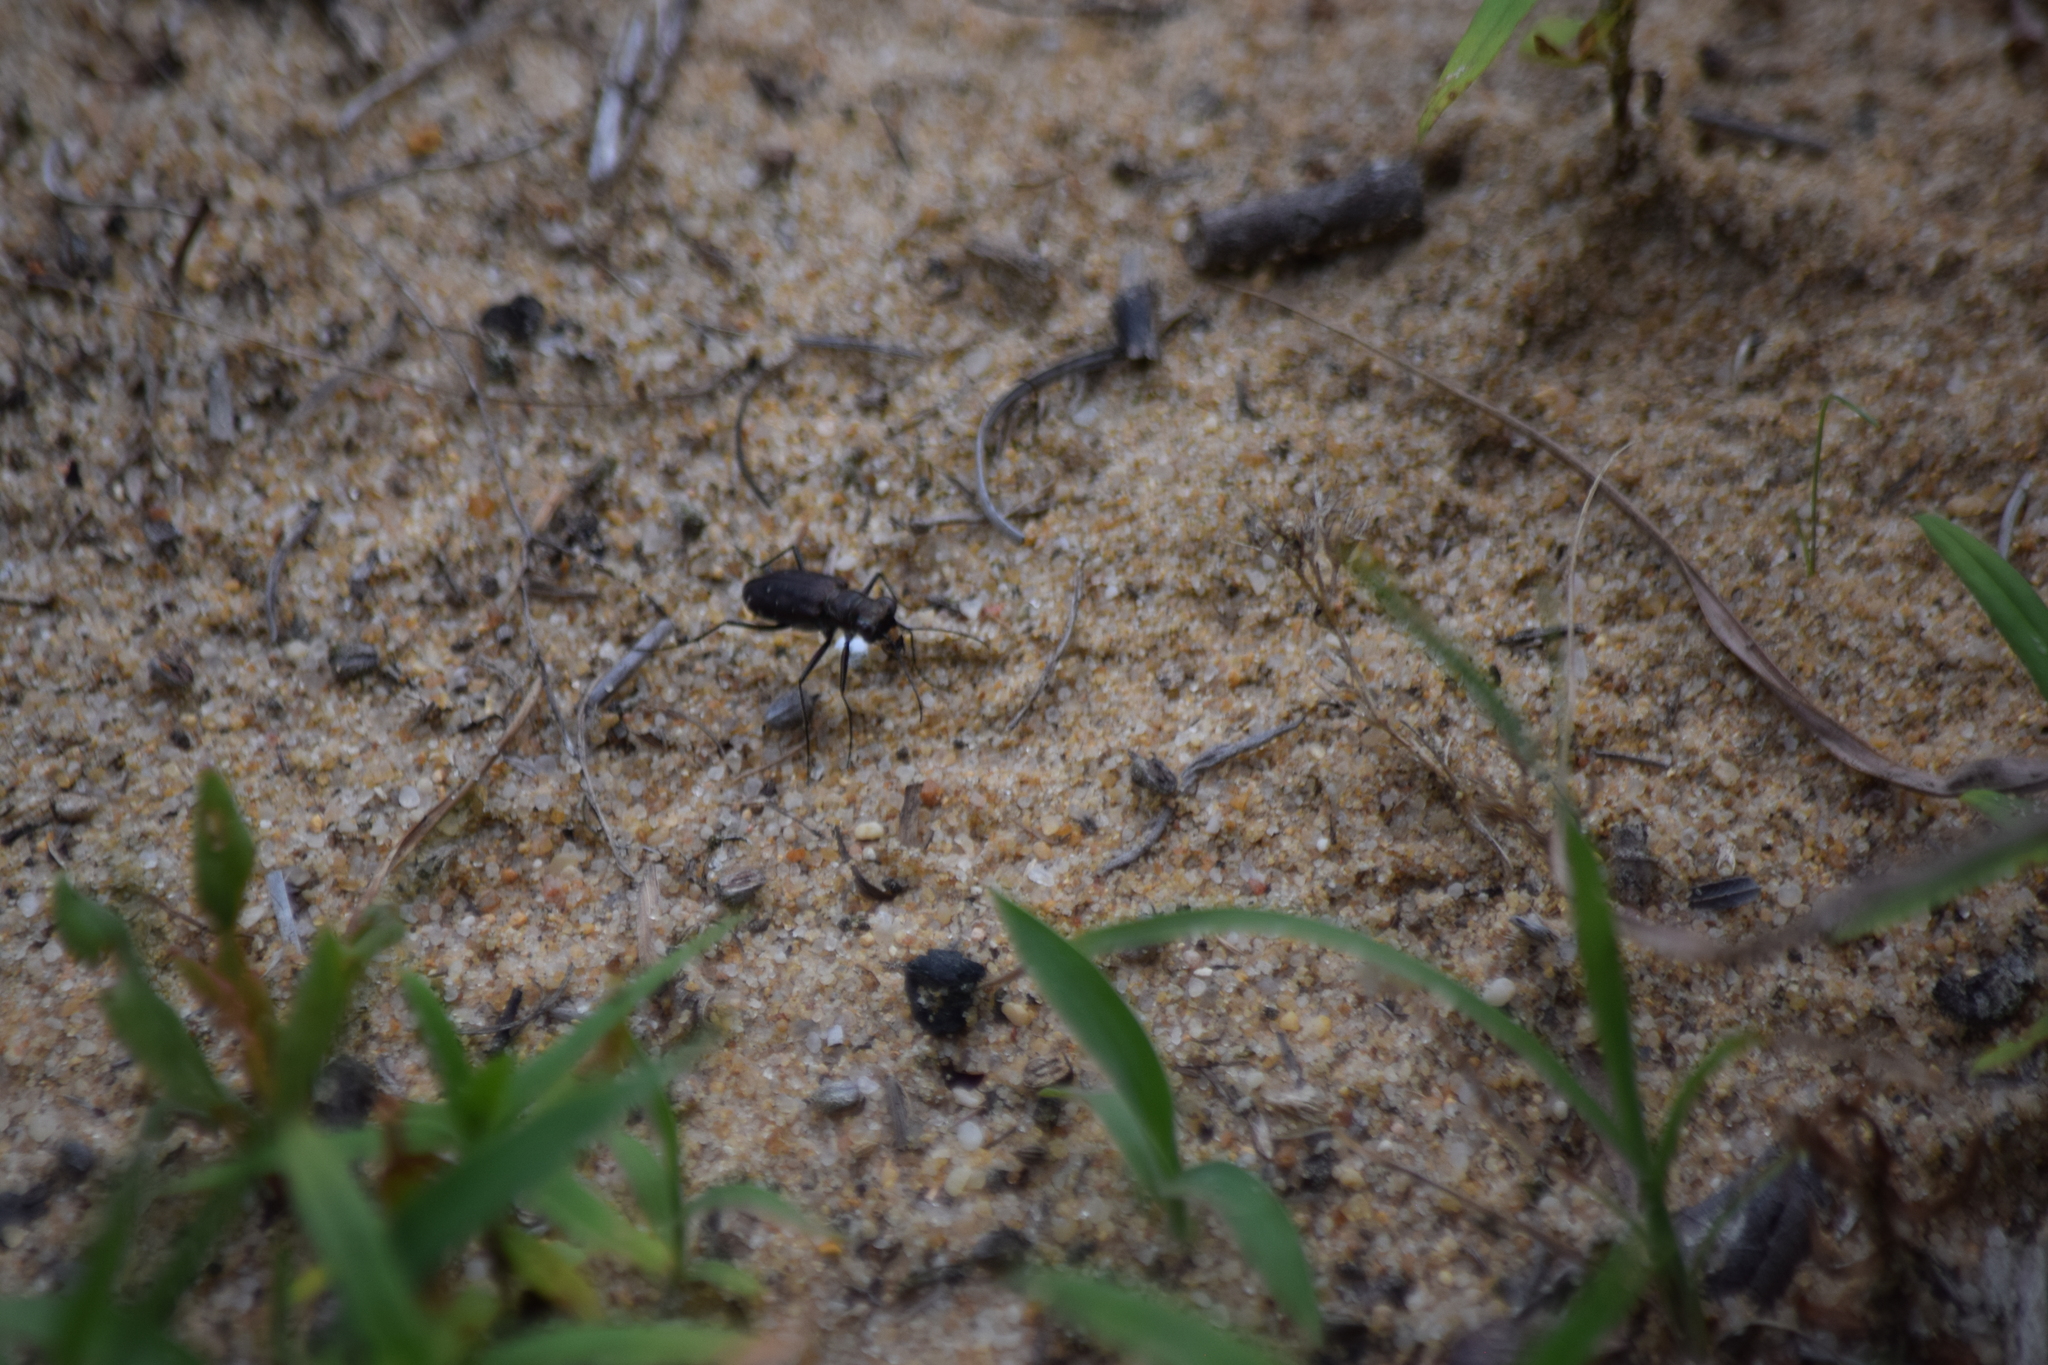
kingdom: Animalia
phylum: Arthropoda
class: Insecta
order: Coleoptera
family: Carabidae
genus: Cicindela
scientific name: Cicindela punctulata
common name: Punctured tiger beetle
